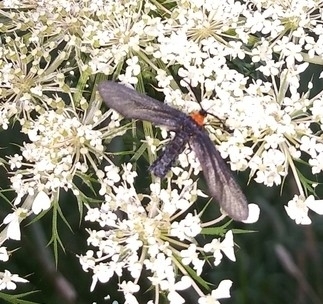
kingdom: Animalia
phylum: Arthropoda
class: Insecta
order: Lepidoptera
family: Zygaenidae
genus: Harrisina
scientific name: Harrisina americana
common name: Grapeleaf skeletonizer moth
